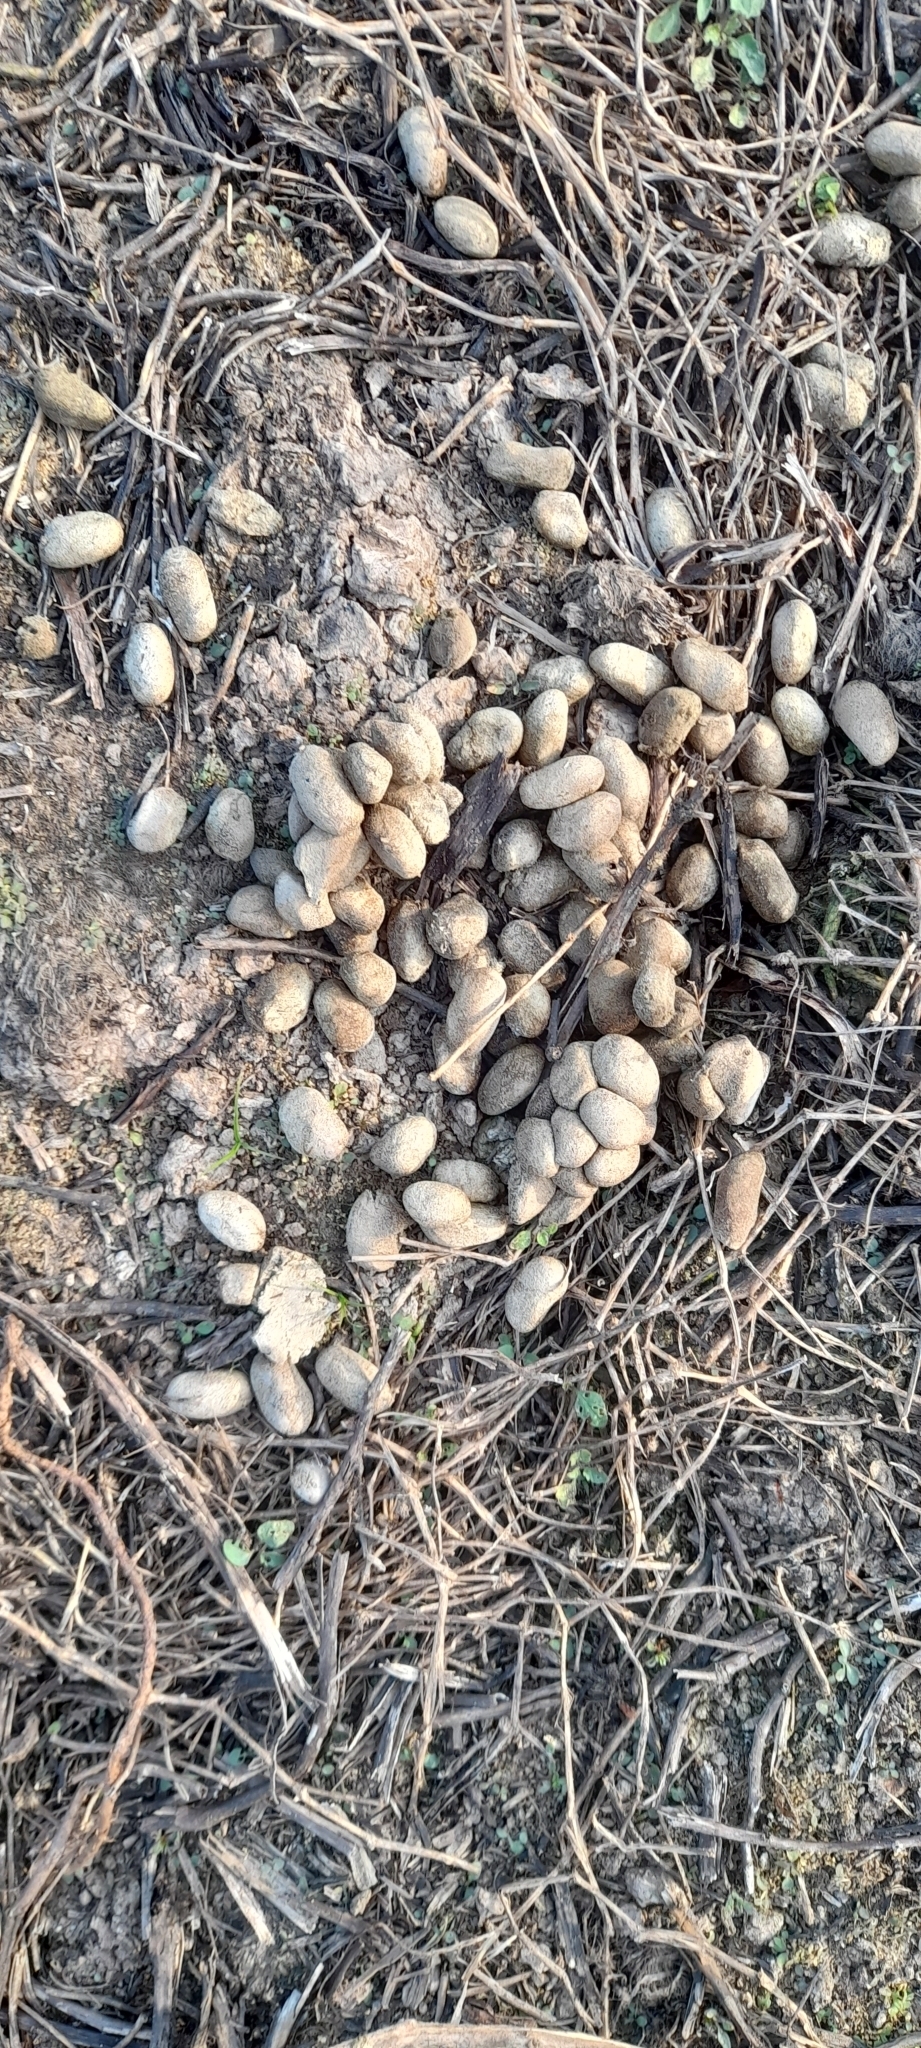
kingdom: Animalia
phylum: Chordata
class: Mammalia
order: Rodentia
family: Caviidae
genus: Hydrochoerus
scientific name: Hydrochoerus hydrochaeris
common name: Capybara
